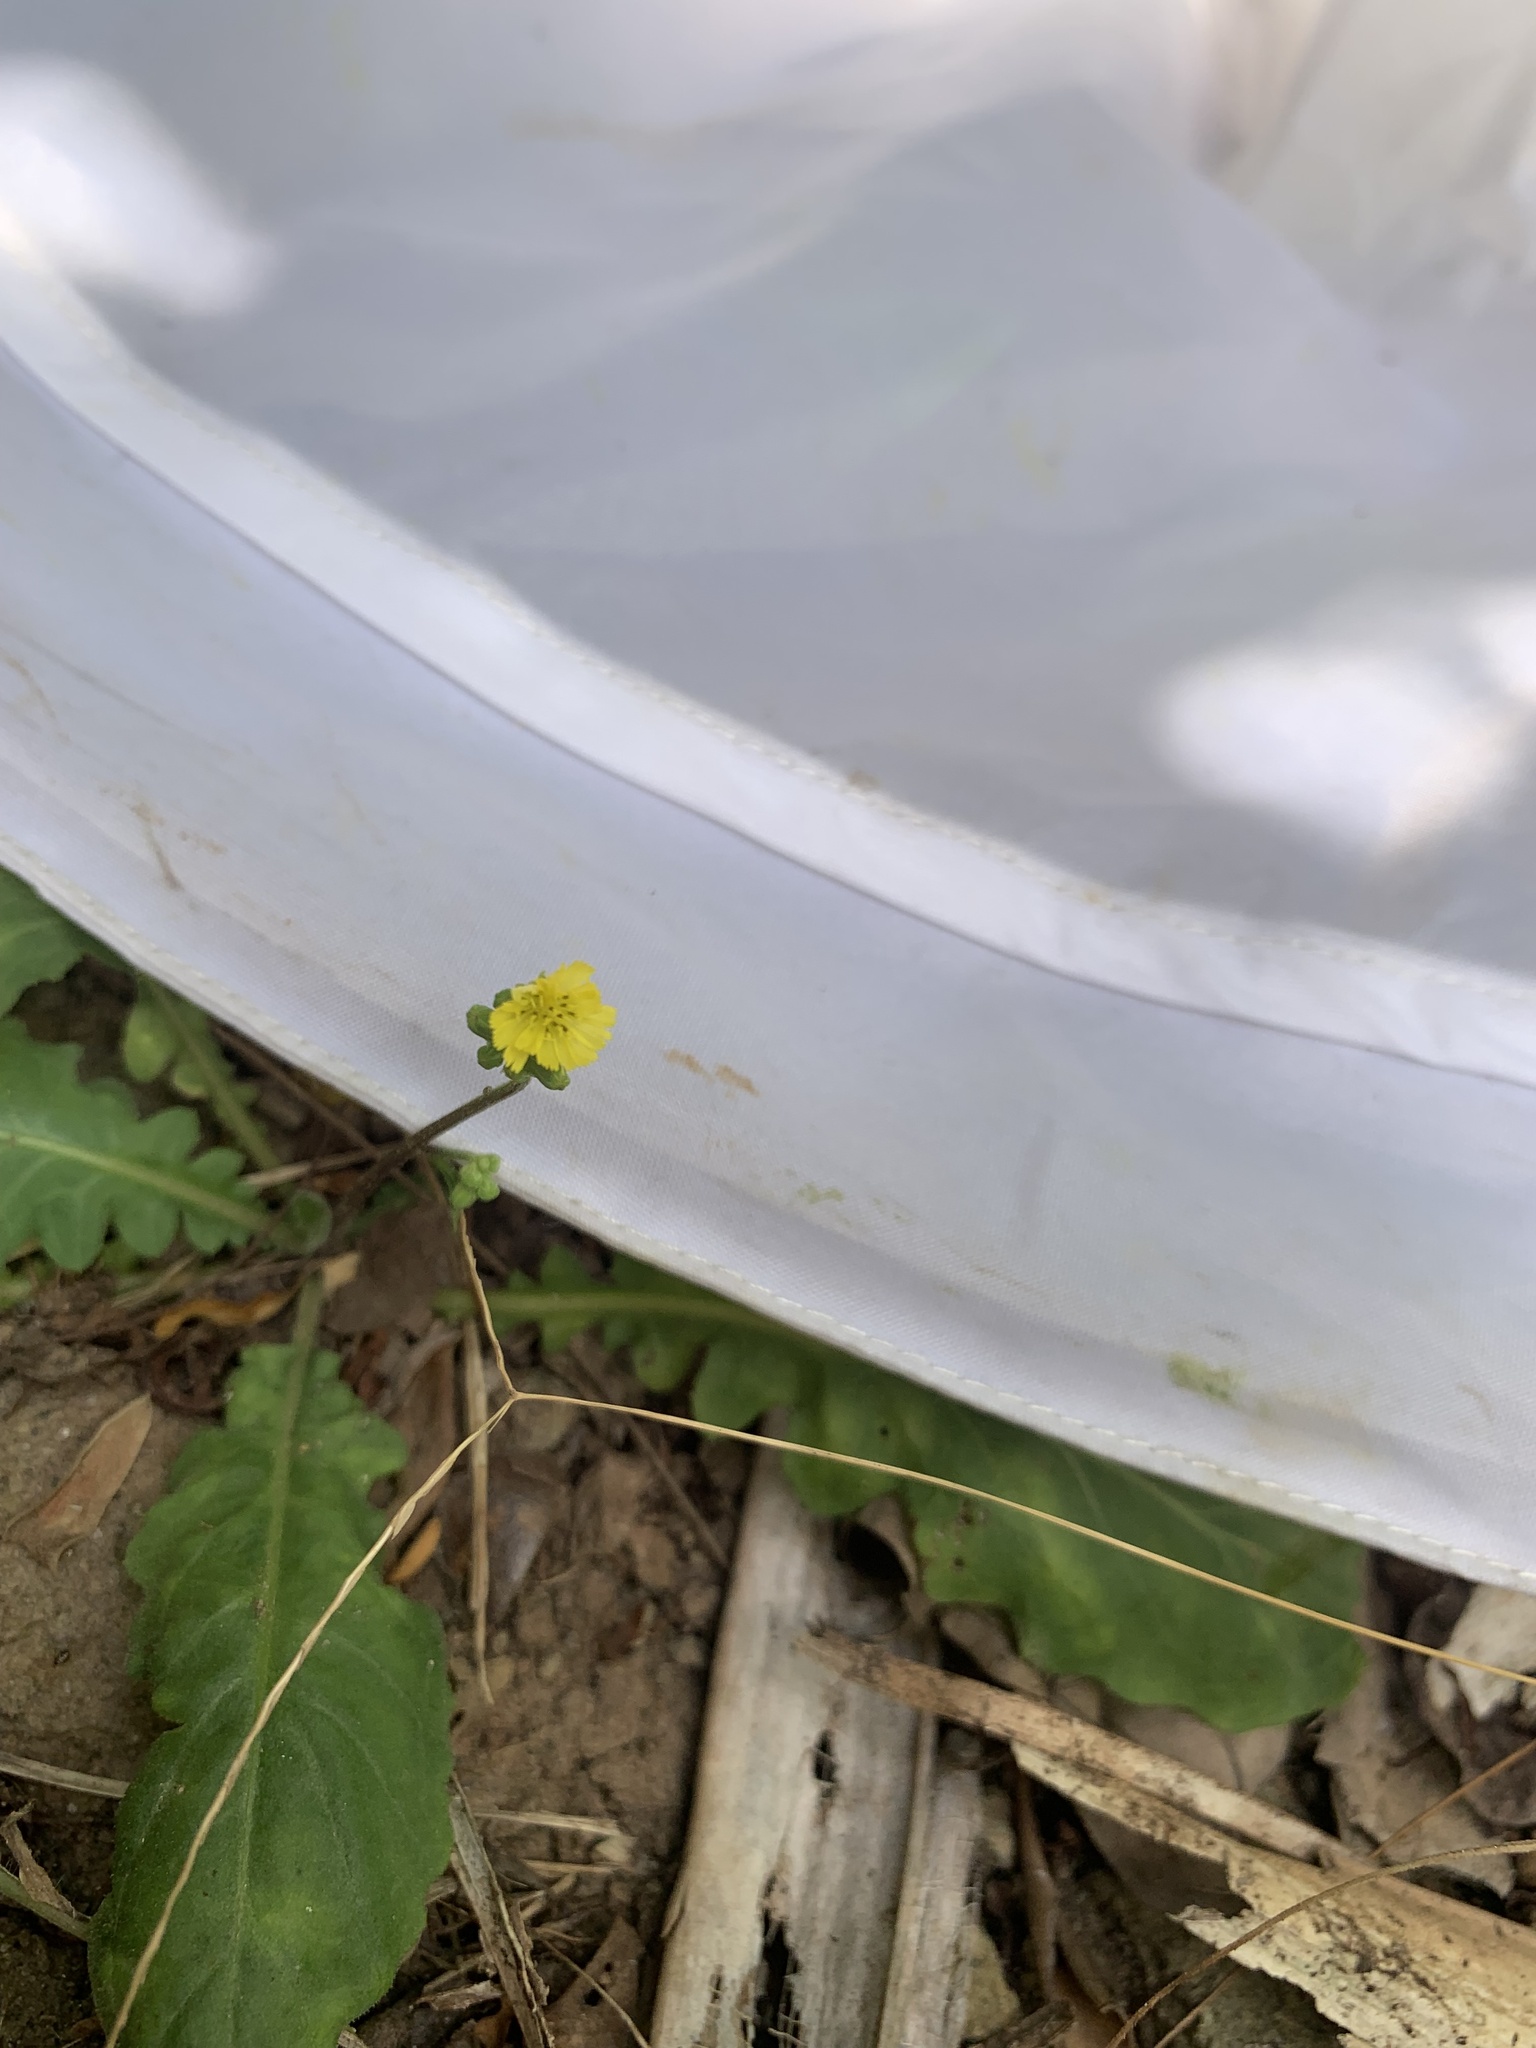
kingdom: Plantae
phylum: Tracheophyta
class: Magnoliopsida
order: Asterales
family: Asteraceae
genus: Youngia
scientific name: Youngia japonica
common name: Oriental false hawksbeard
